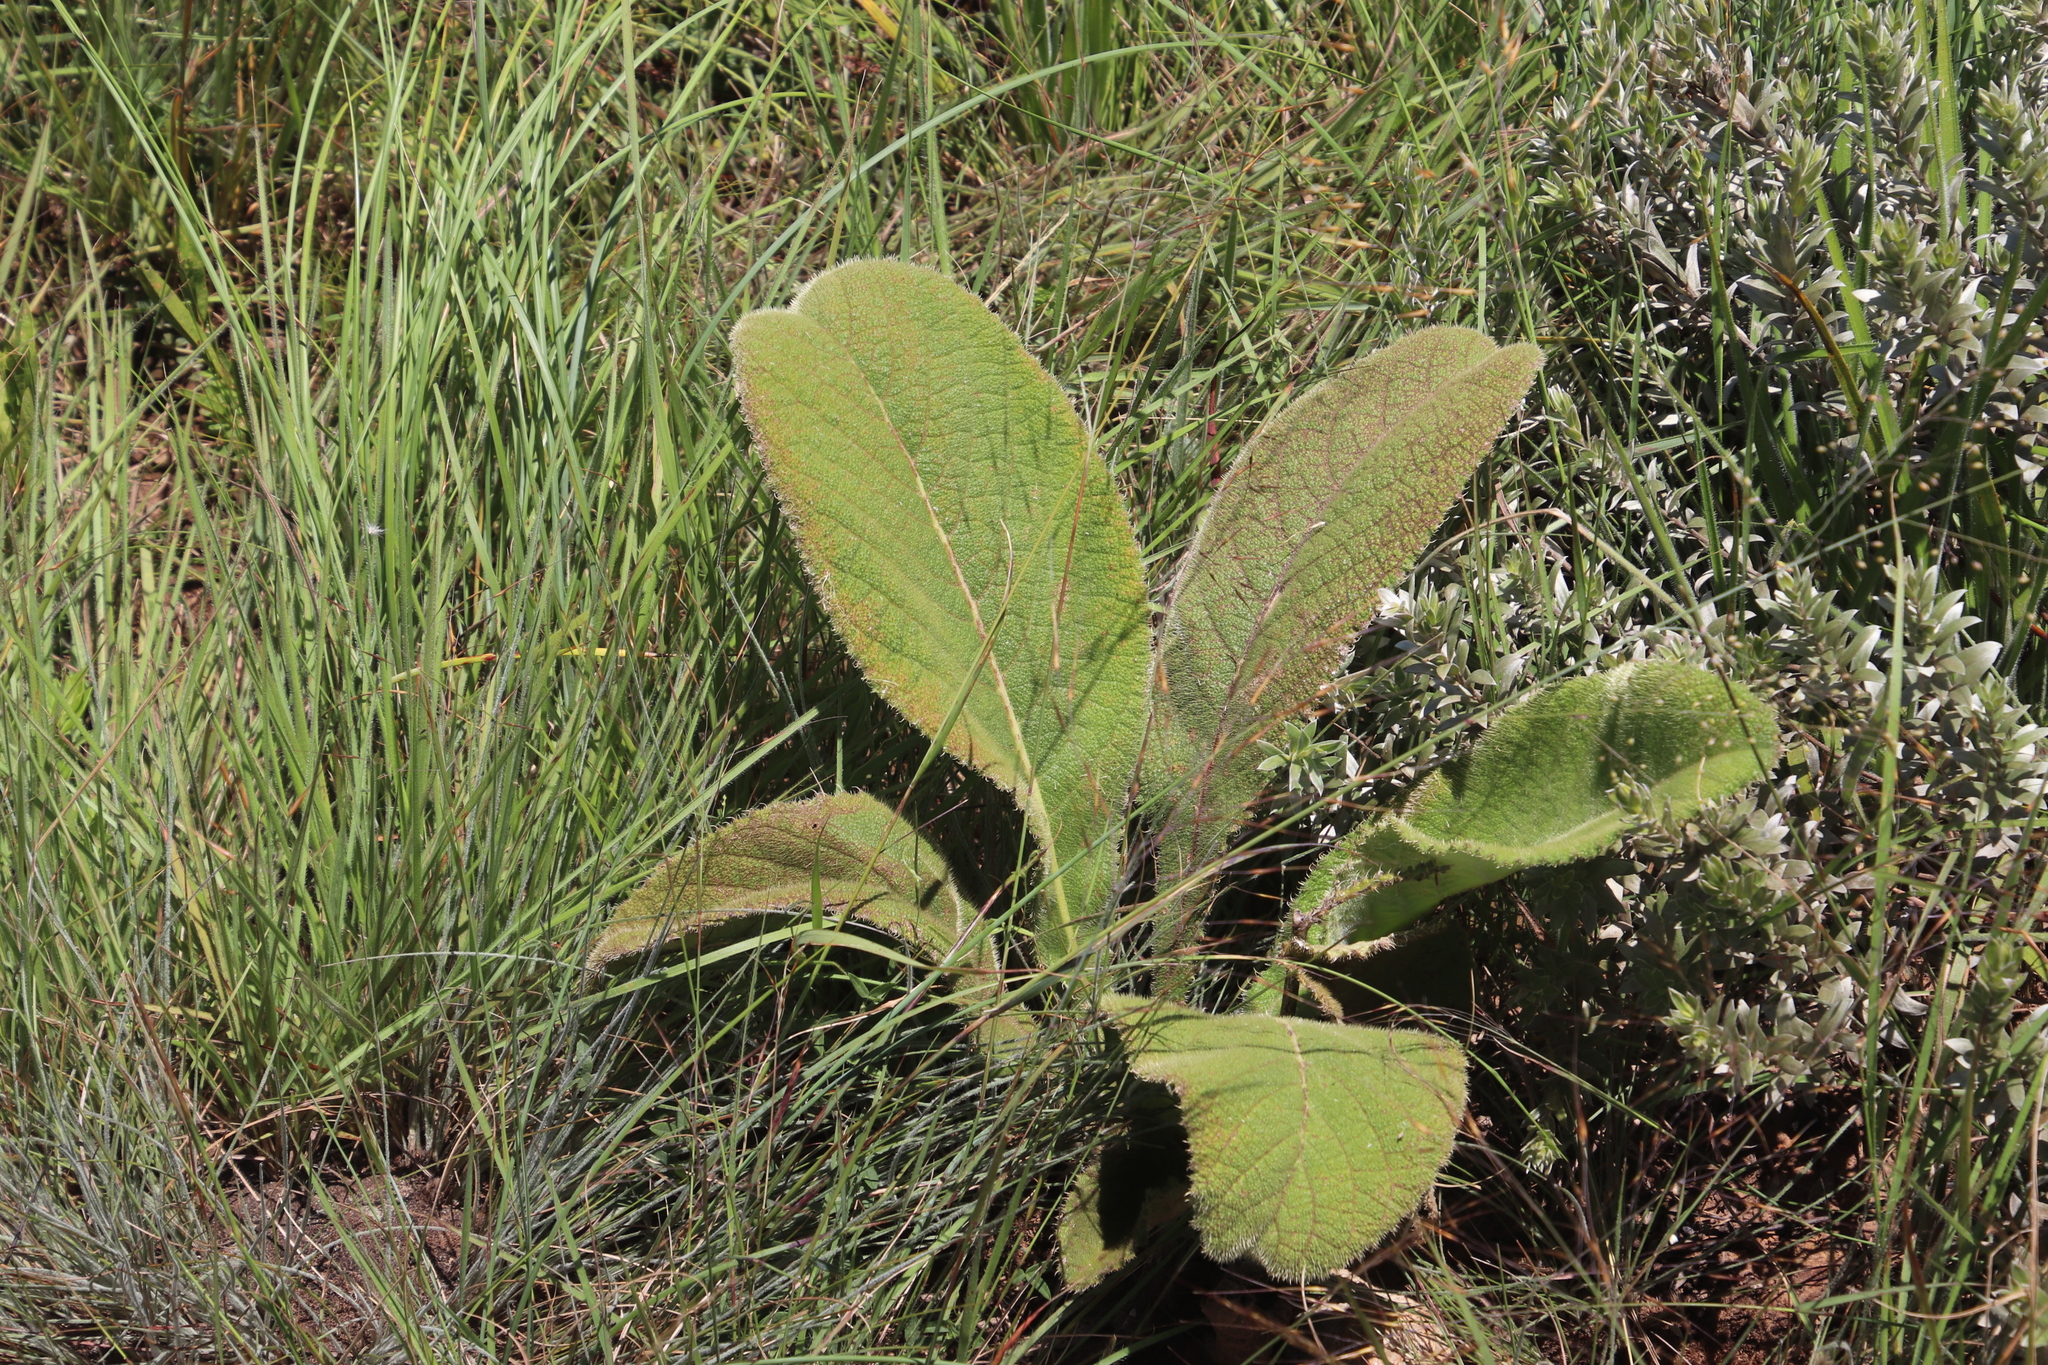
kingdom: Plantae
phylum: Tracheophyta
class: Magnoliopsida
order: Asterales
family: Asteraceae
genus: Berkheya
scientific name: Berkheya setifera
